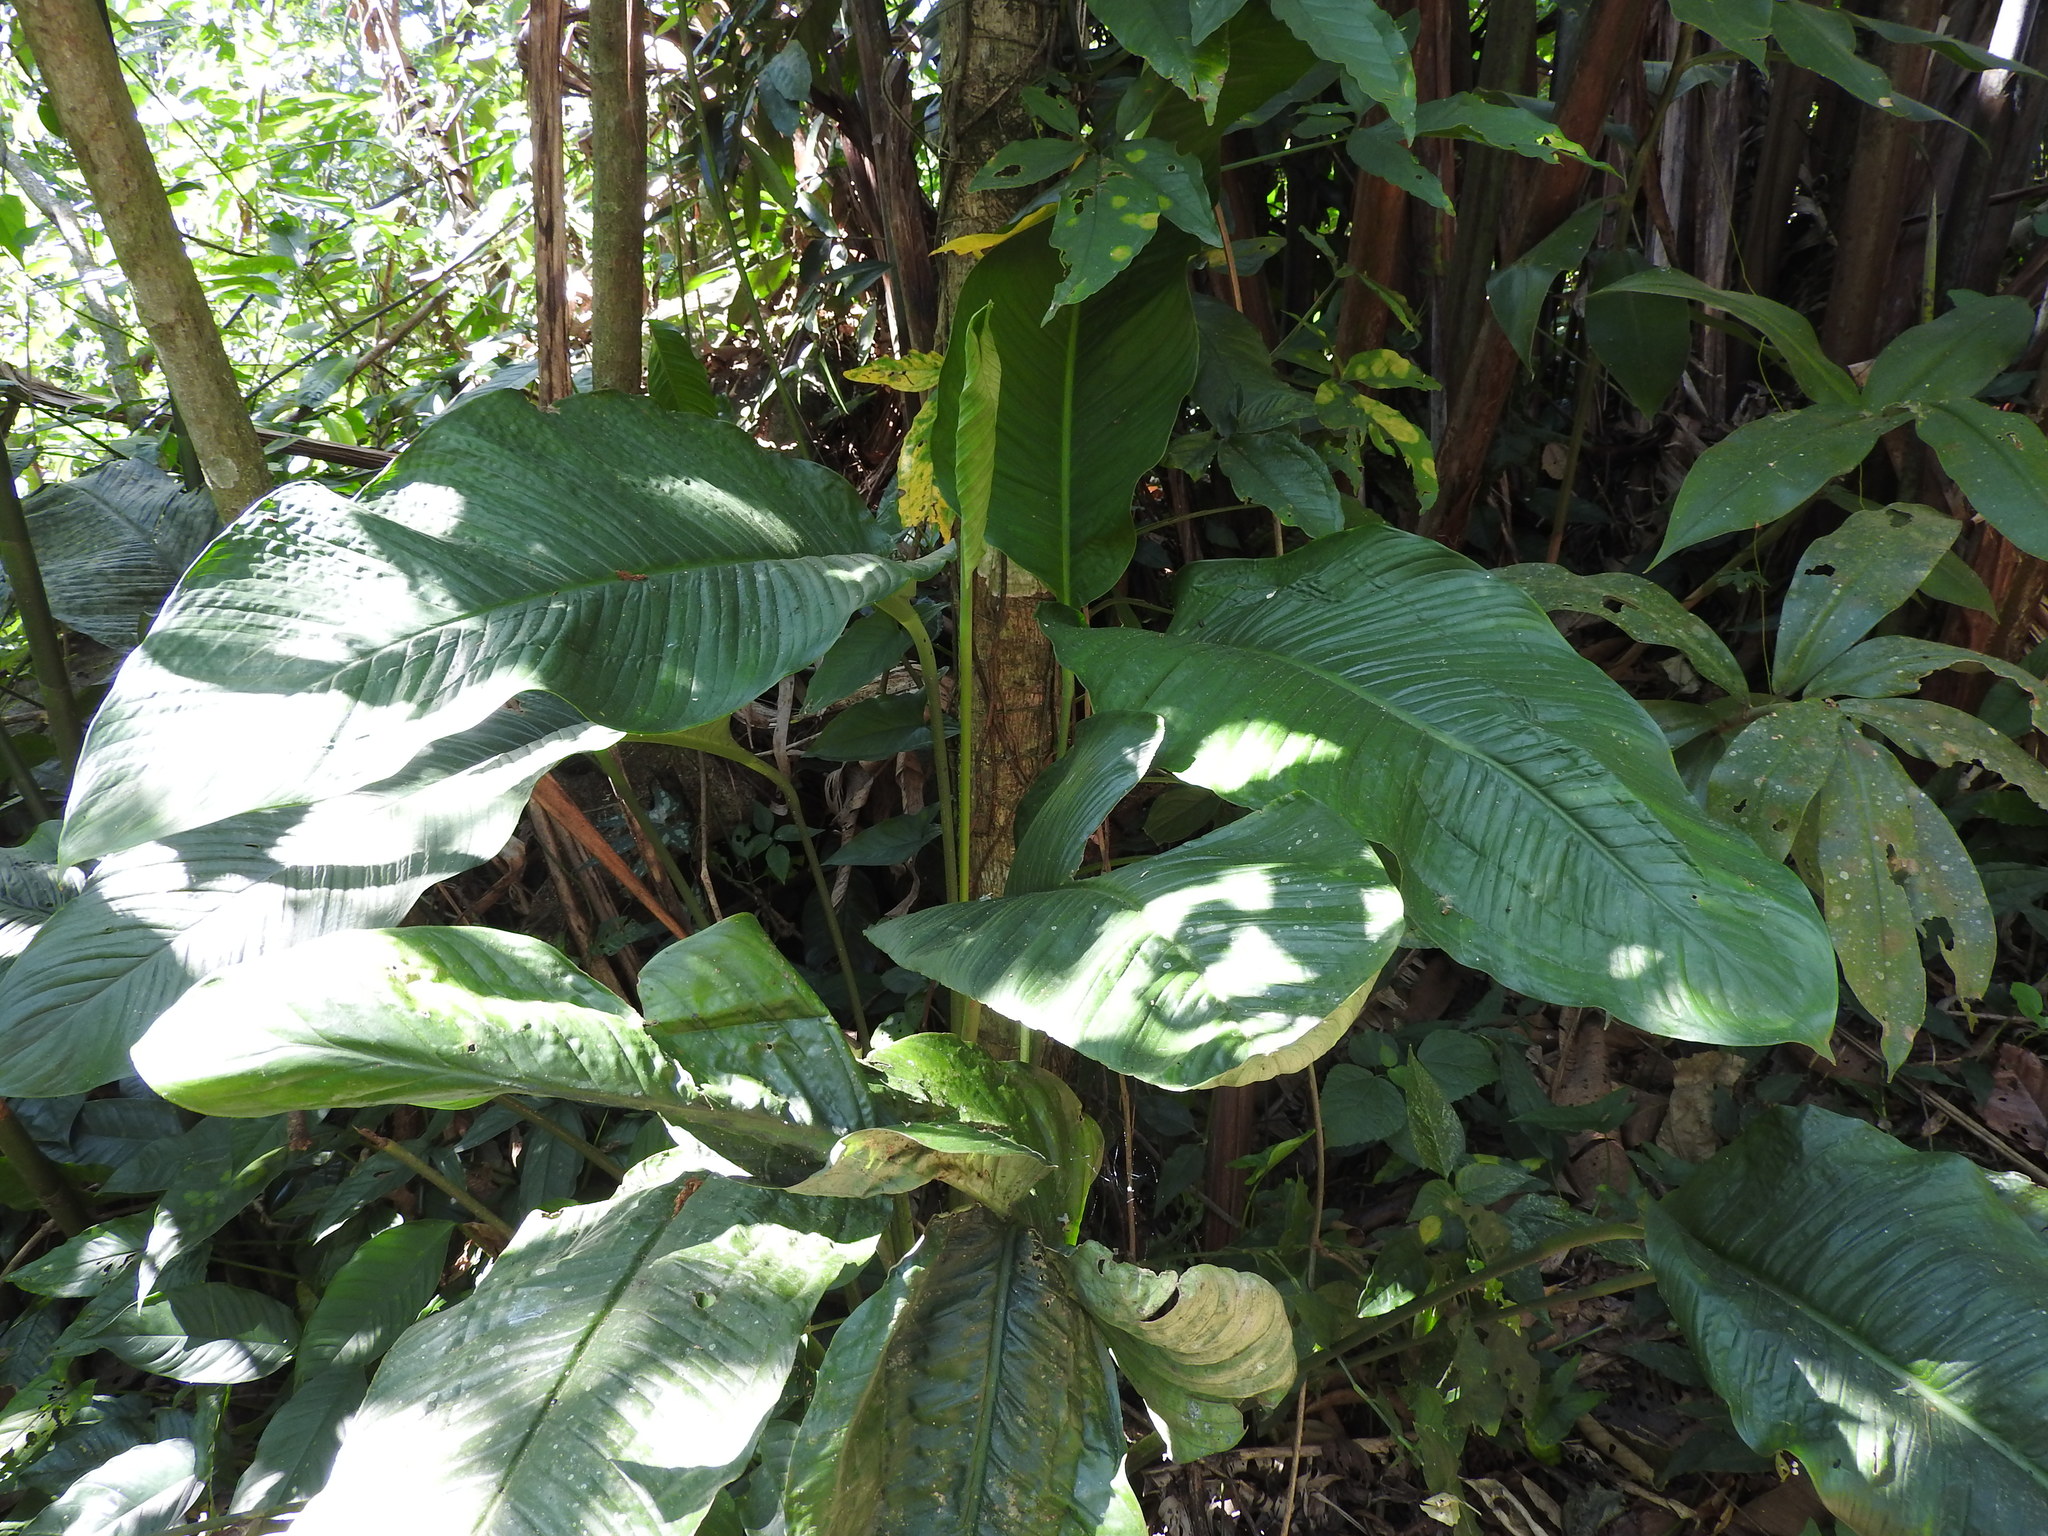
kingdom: Plantae
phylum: Tracheophyta
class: Liliopsida
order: Alismatales
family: Araceae
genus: Spathiphyllum
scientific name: Spathiphyllum friedrichsthalii
